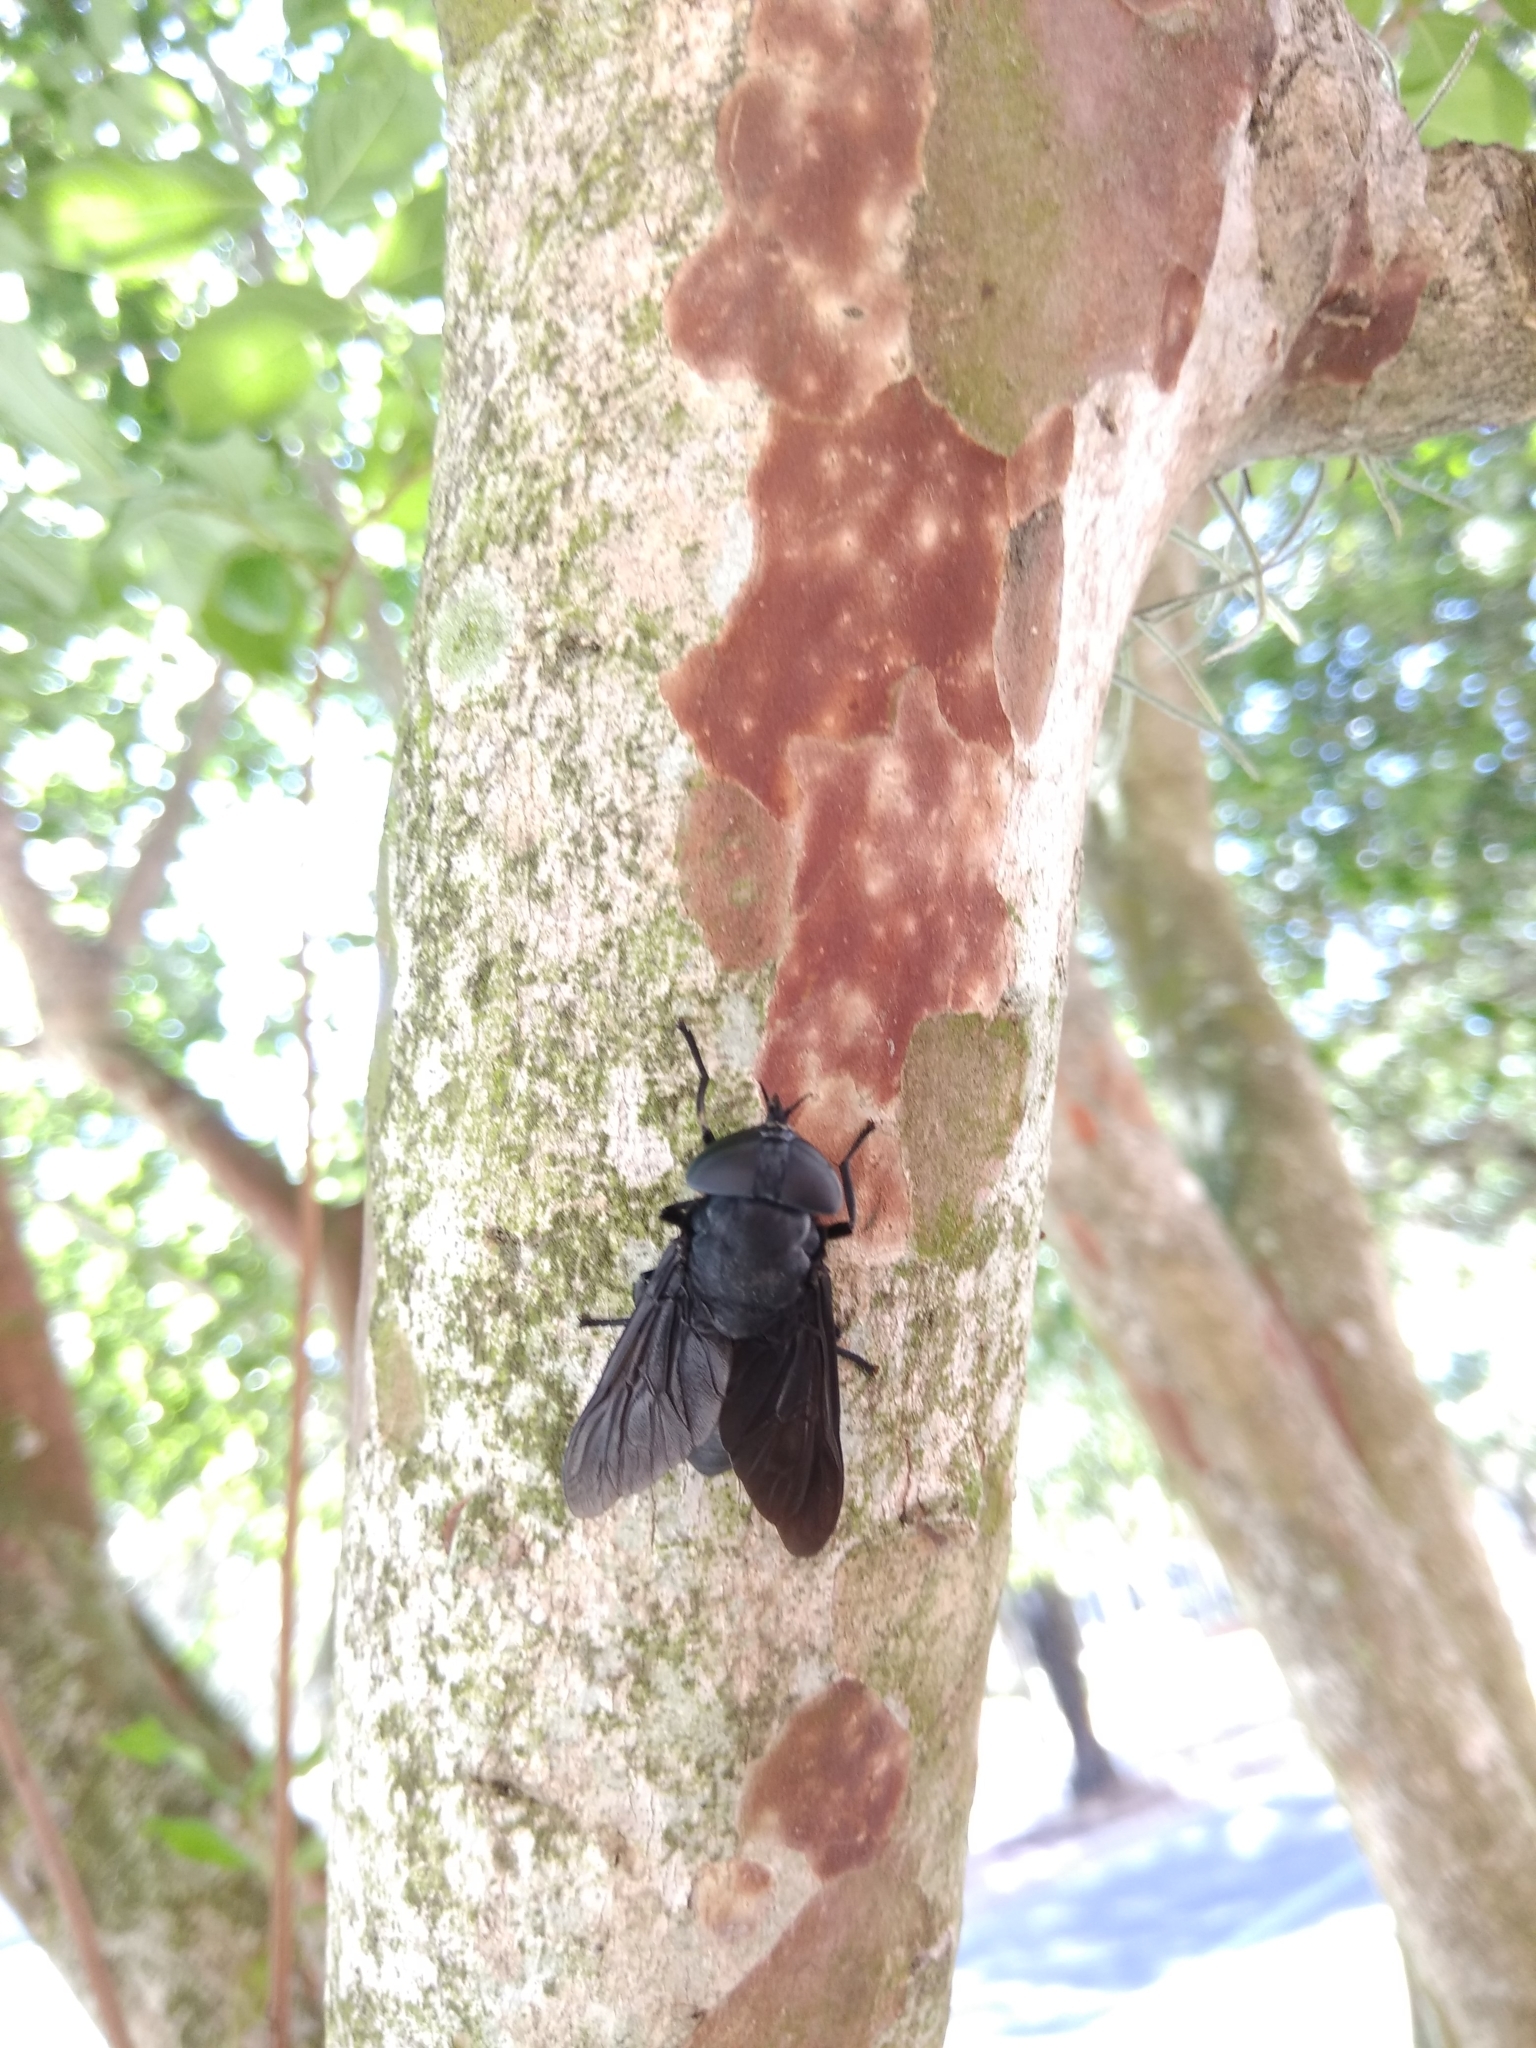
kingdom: Animalia
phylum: Arthropoda
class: Insecta
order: Diptera
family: Tabanidae
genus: Tabanus
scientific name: Tabanus atratus
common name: Black horse fly
